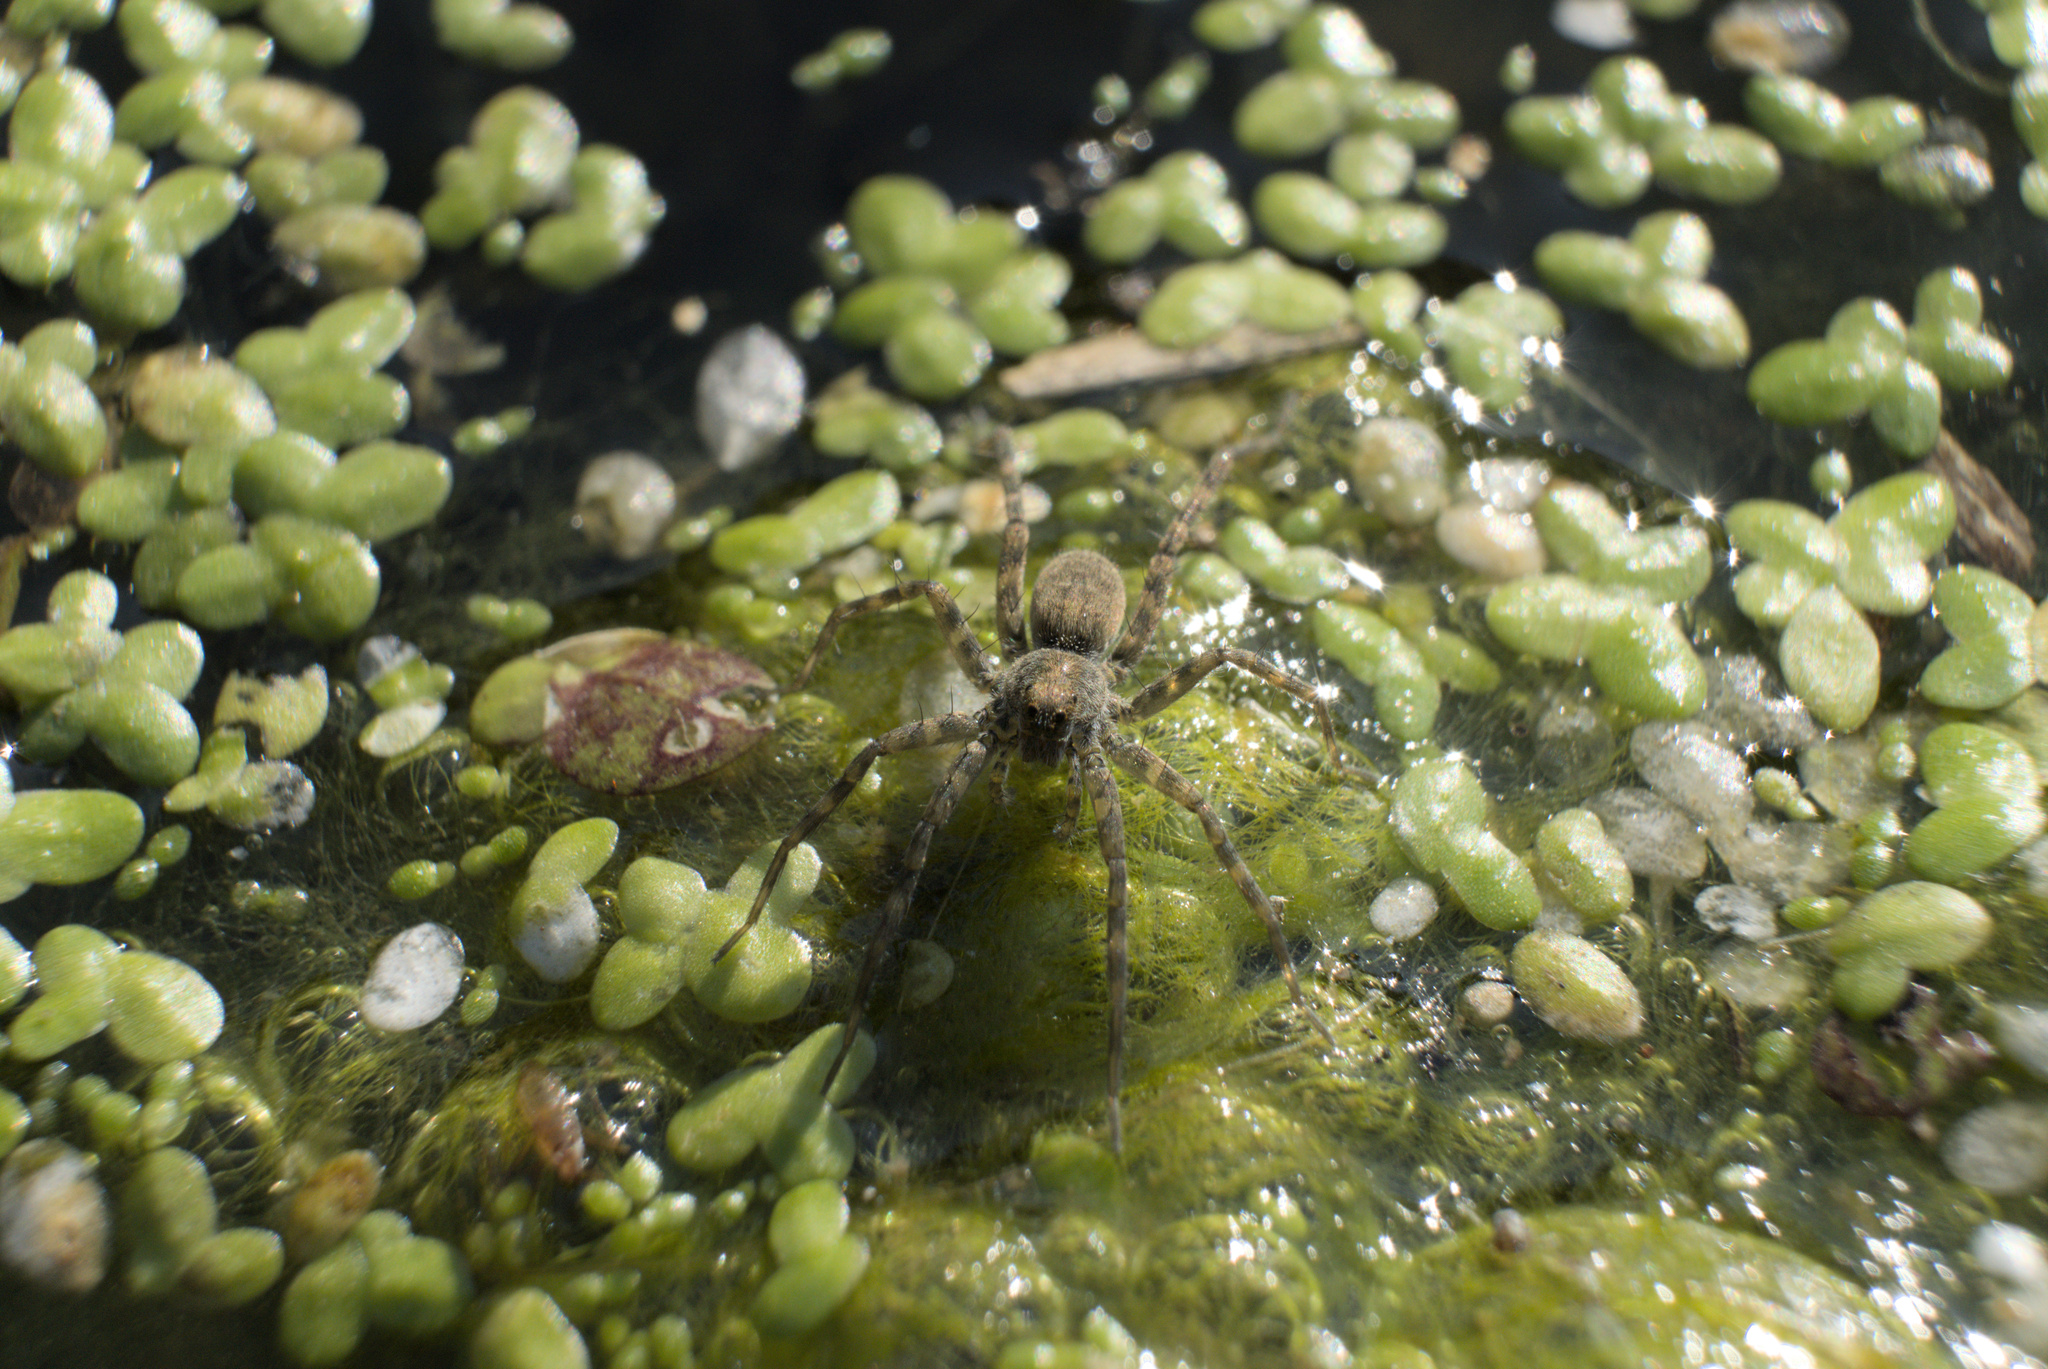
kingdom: Animalia
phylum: Arthropoda
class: Arachnida
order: Araneae
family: Lycosidae
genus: Pardosa
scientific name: Pardosa lapidicina
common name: Stone spider
